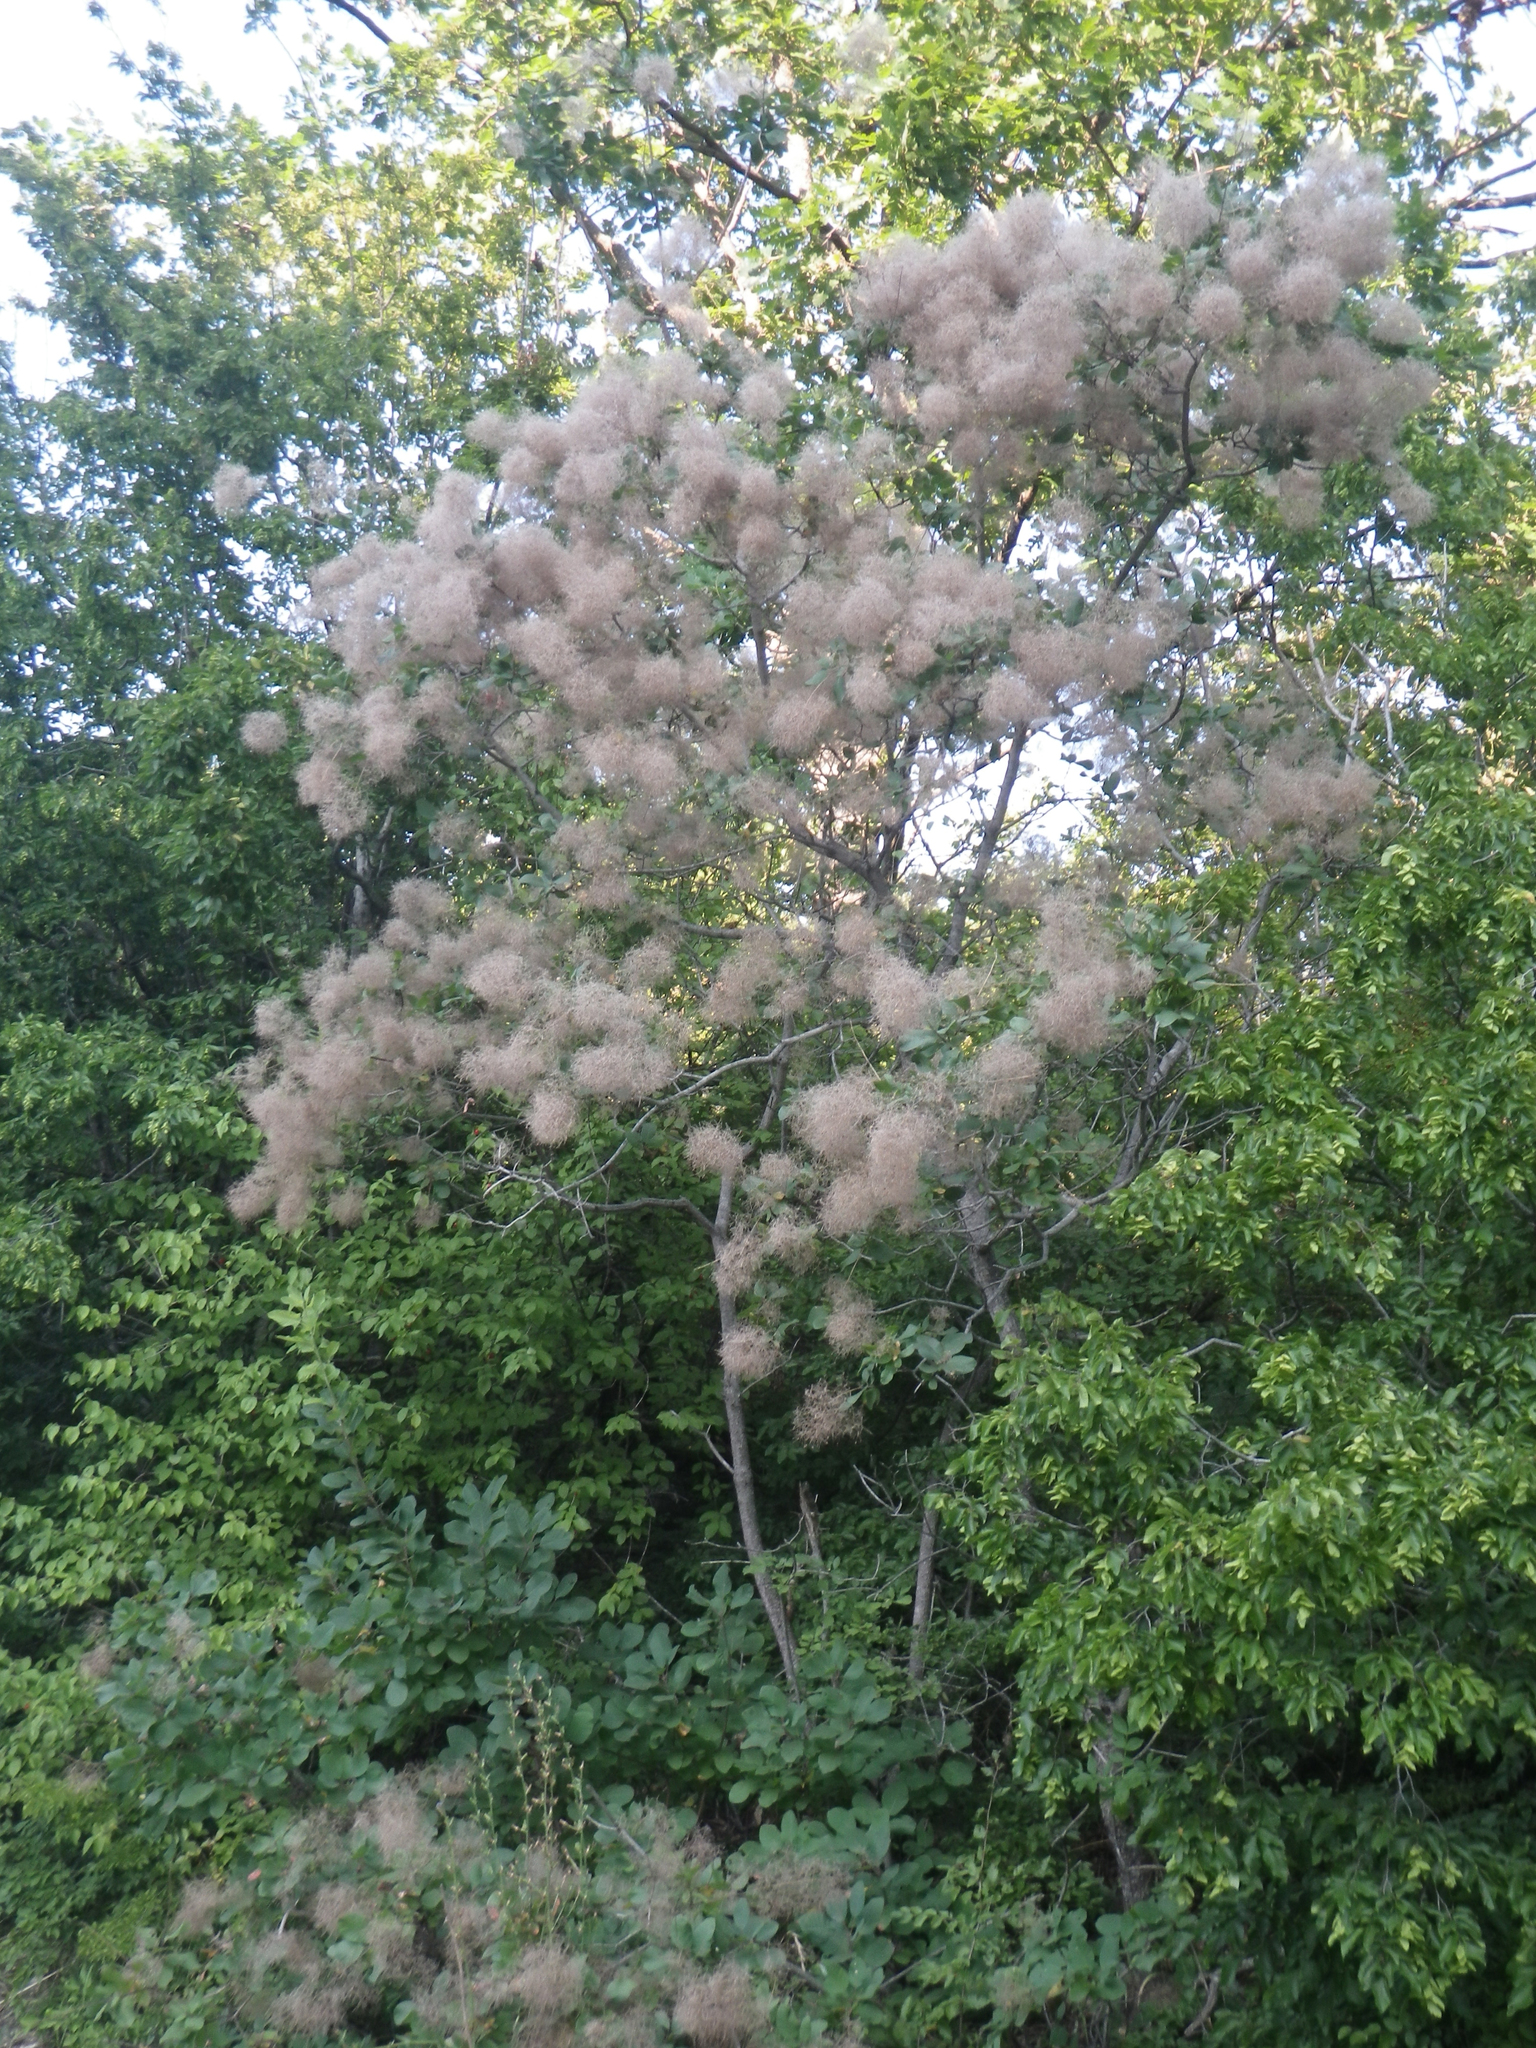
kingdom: Plantae
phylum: Tracheophyta
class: Magnoliopsida
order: Sapindales
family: Anacardiaceae
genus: Cotinus
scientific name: Cotinus coggygria
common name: Smoke-tree
